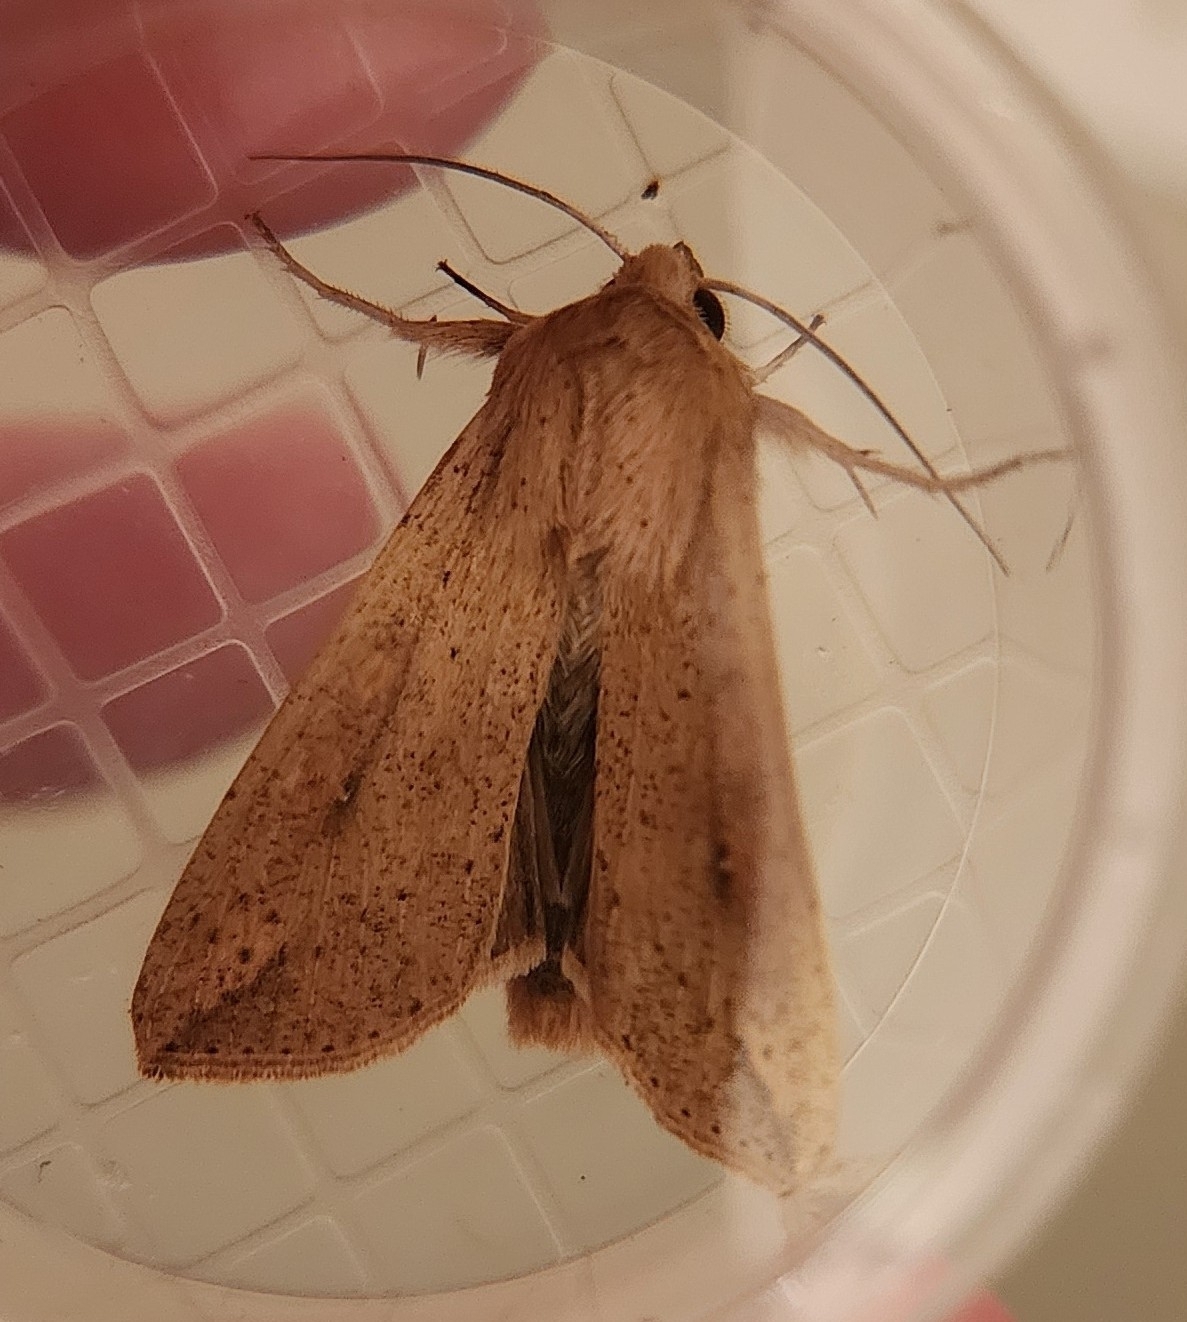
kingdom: Animalia
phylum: Arthropoda
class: Insecta
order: Lepidoptera
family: Noctuidae
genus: Mythimna
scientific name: Mythimna unipuncta
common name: White-speck
